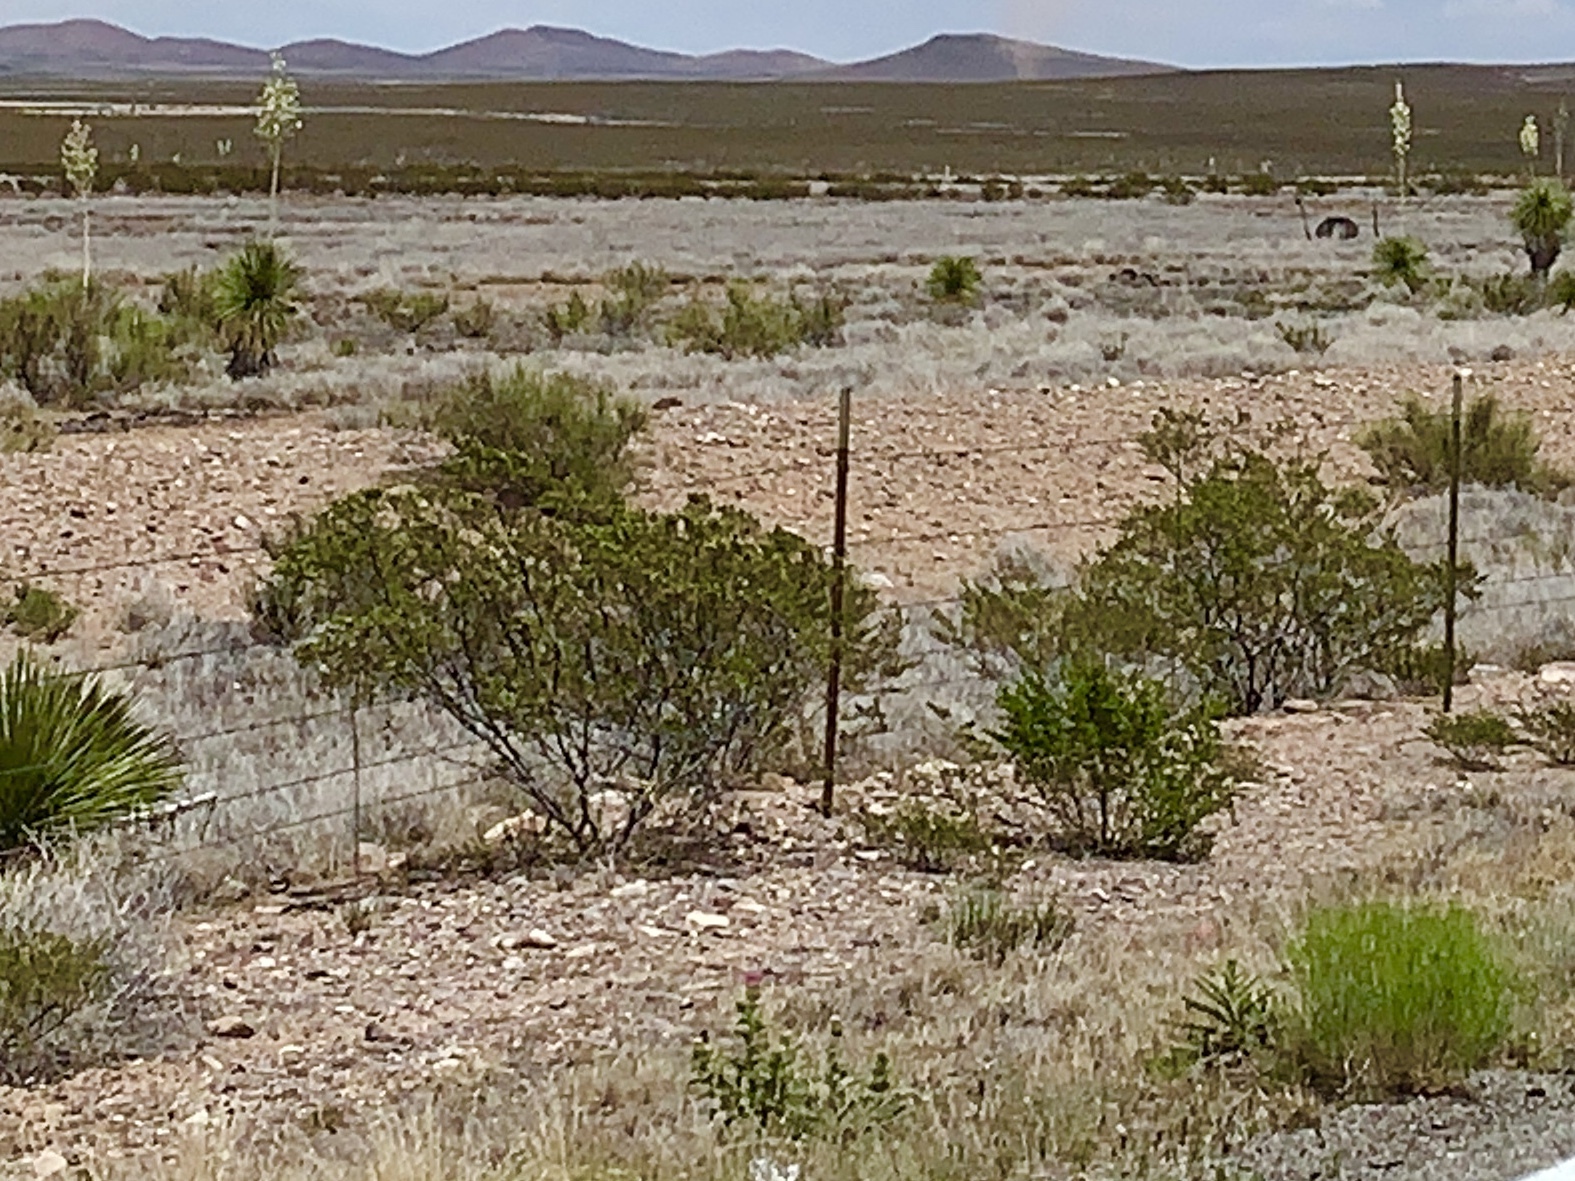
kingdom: Plantae
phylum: Tracheophyta
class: Magnoliopsida
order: Zygophyllales
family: Zygophyllaceae
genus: Larrea
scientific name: Larrea tridentata
